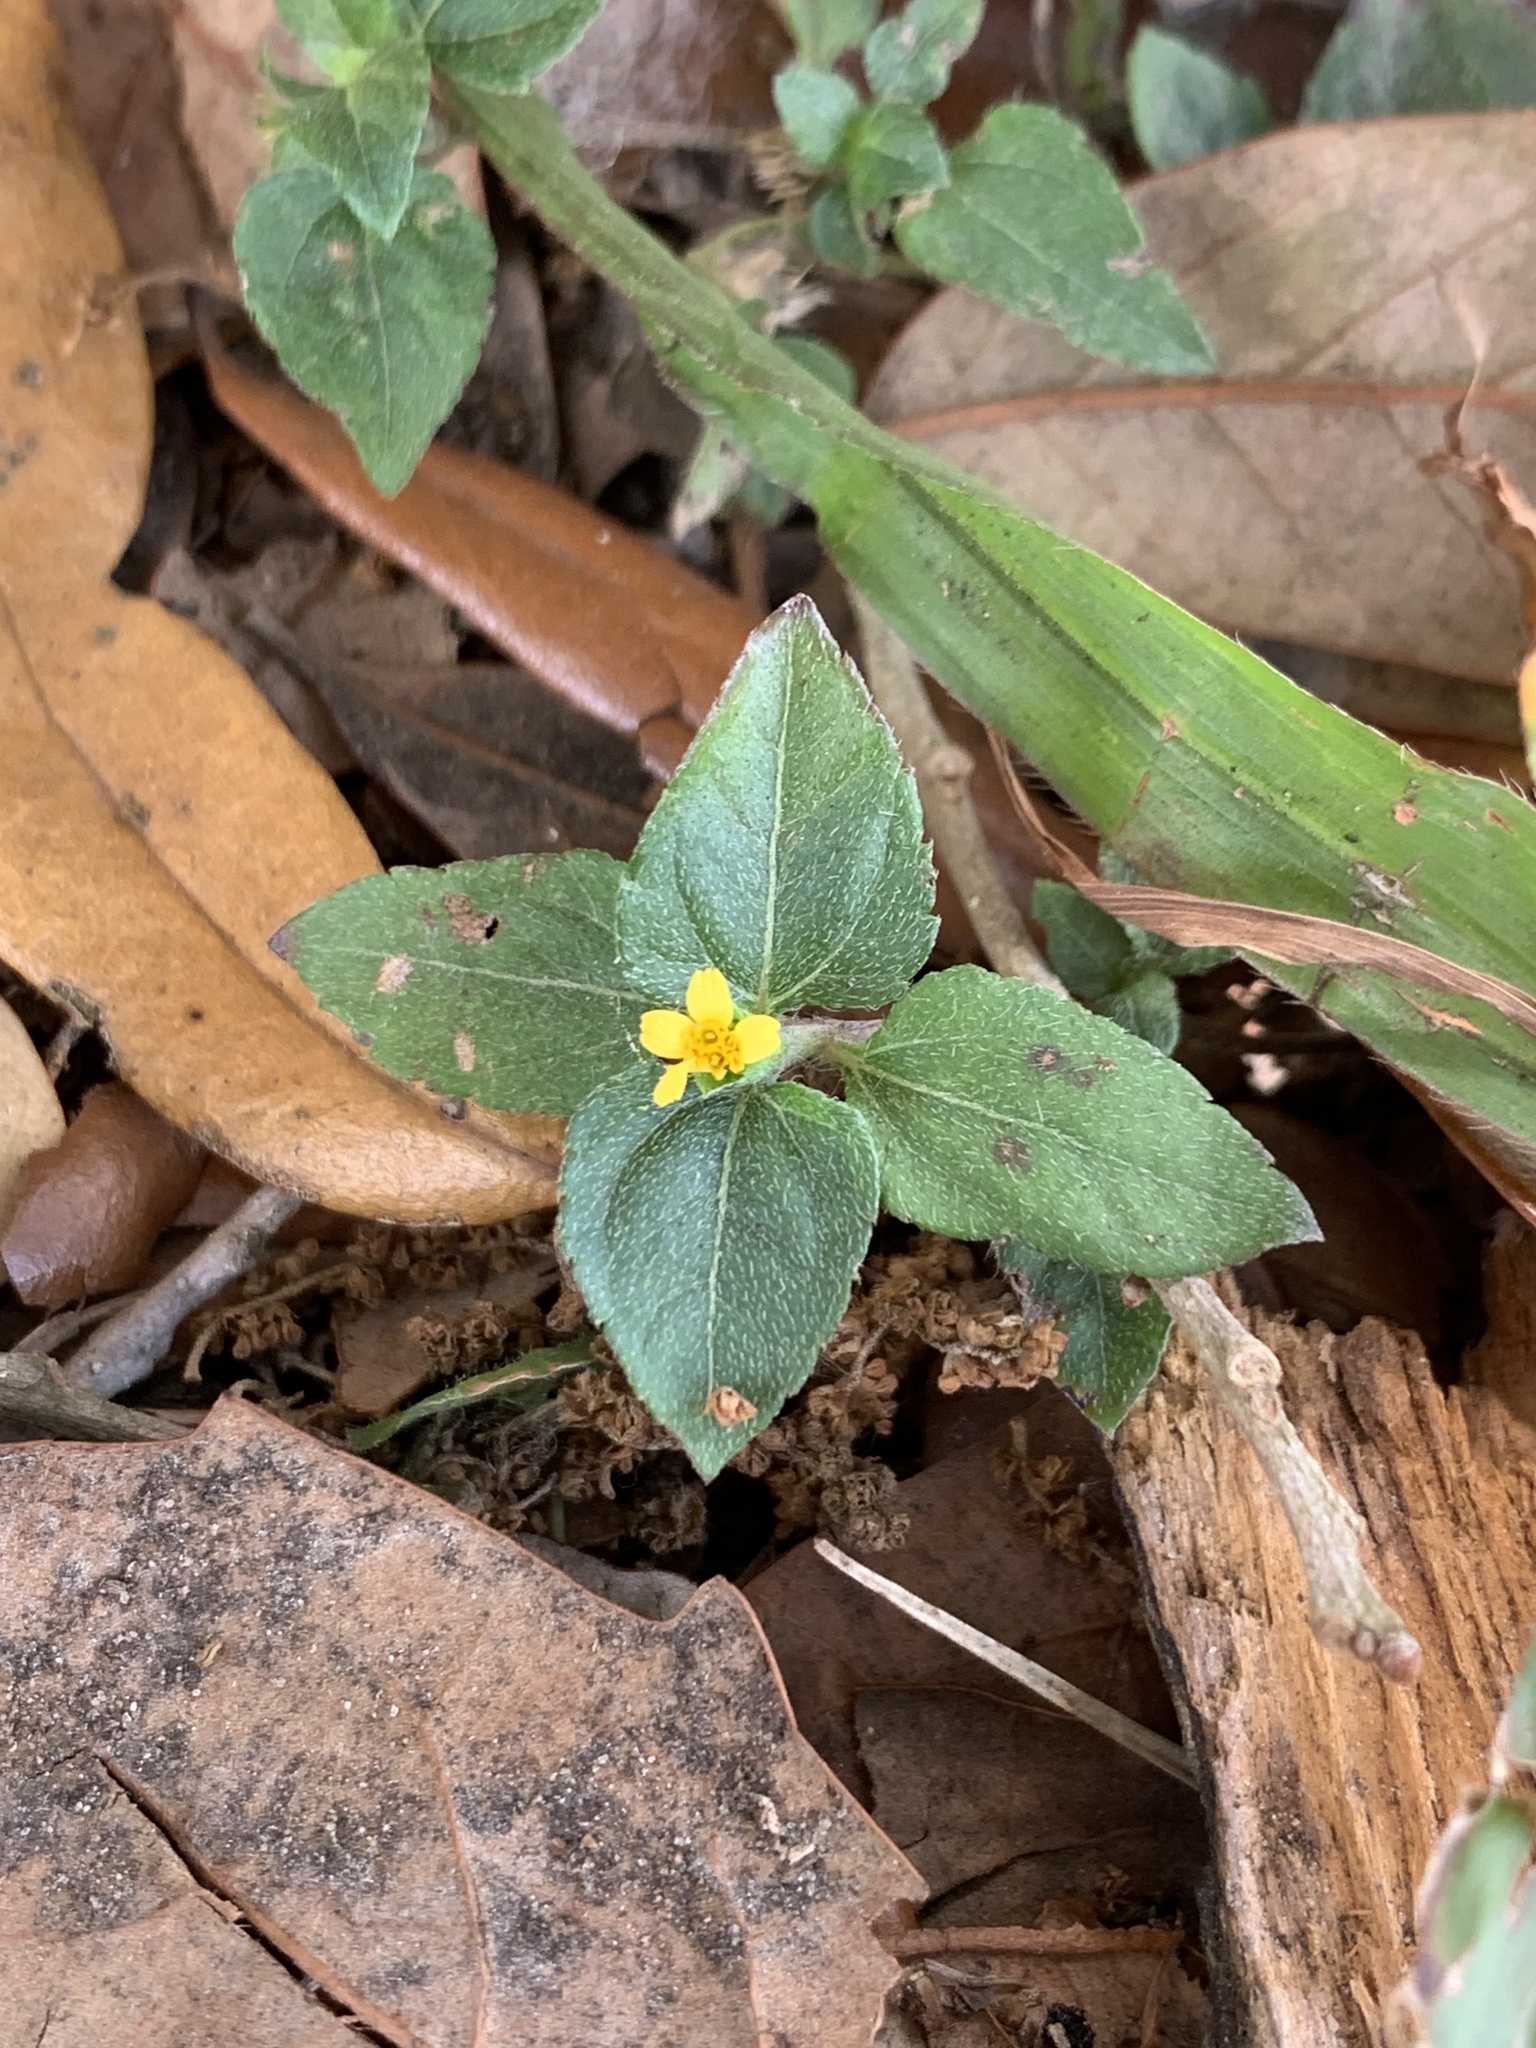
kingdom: Plantae
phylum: Tracheophyta
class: Magnoliopsida
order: Asterales
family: Asteraceae
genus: Calyptocarpus
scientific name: Calyptocarpus vialis
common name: Straggler daisy
